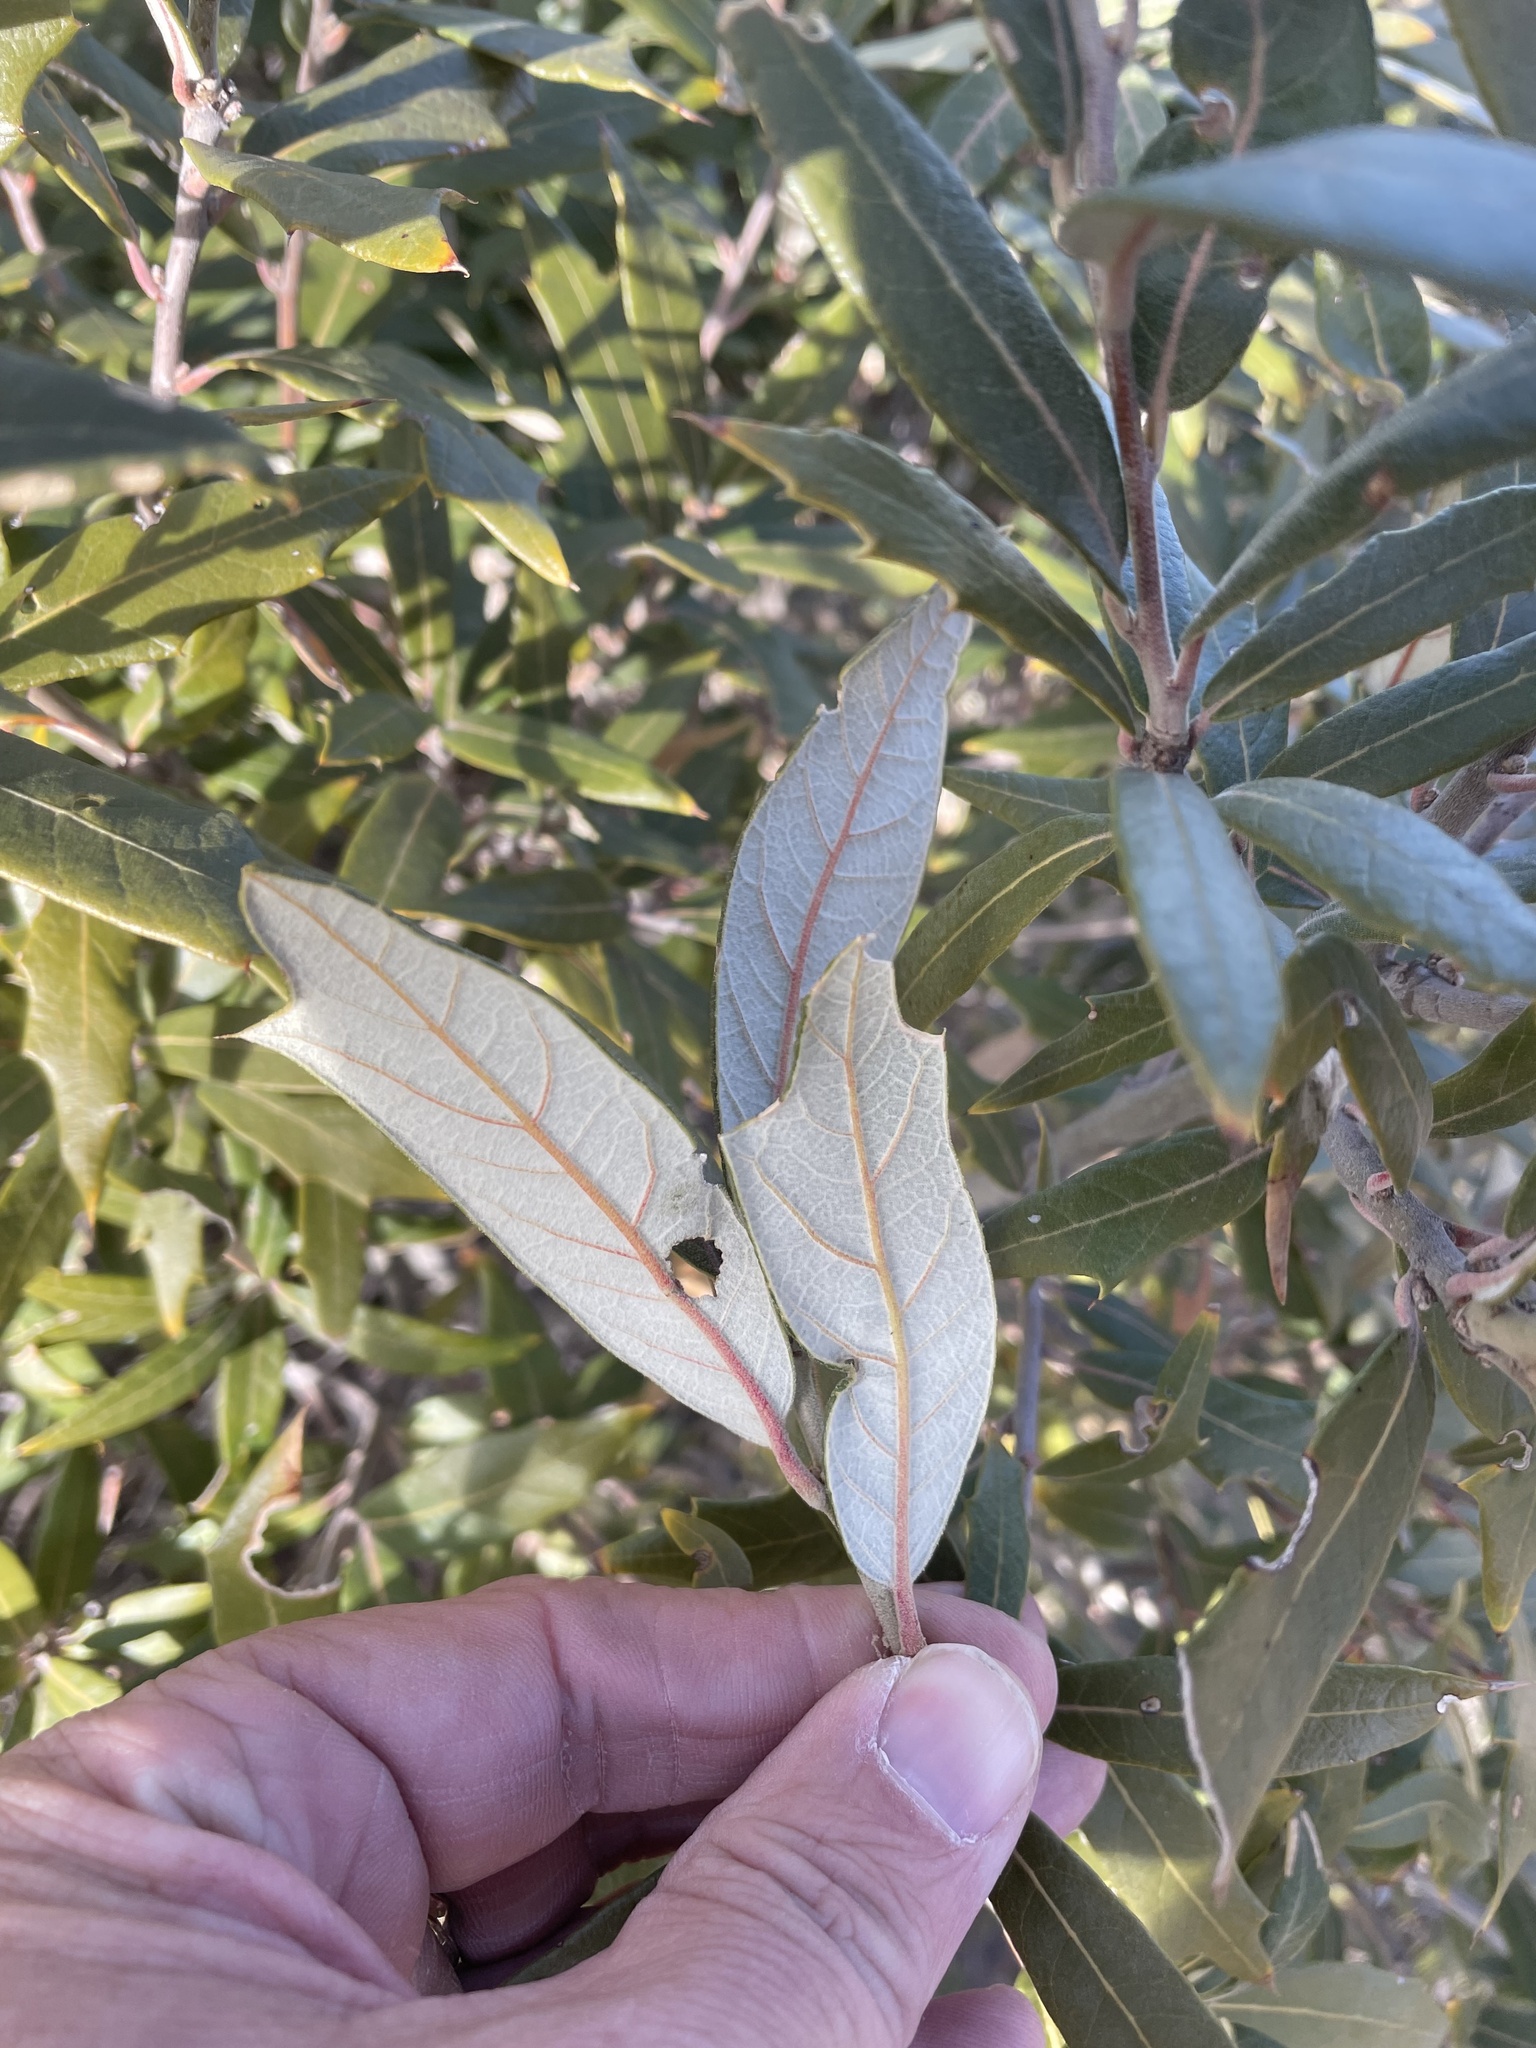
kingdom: Plantae
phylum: Tracheophyta
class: Magnoliopsida
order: Fagales
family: Fagaceae
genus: Quercus
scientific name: Quercus hypoleucoides
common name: Silverleaf oak
